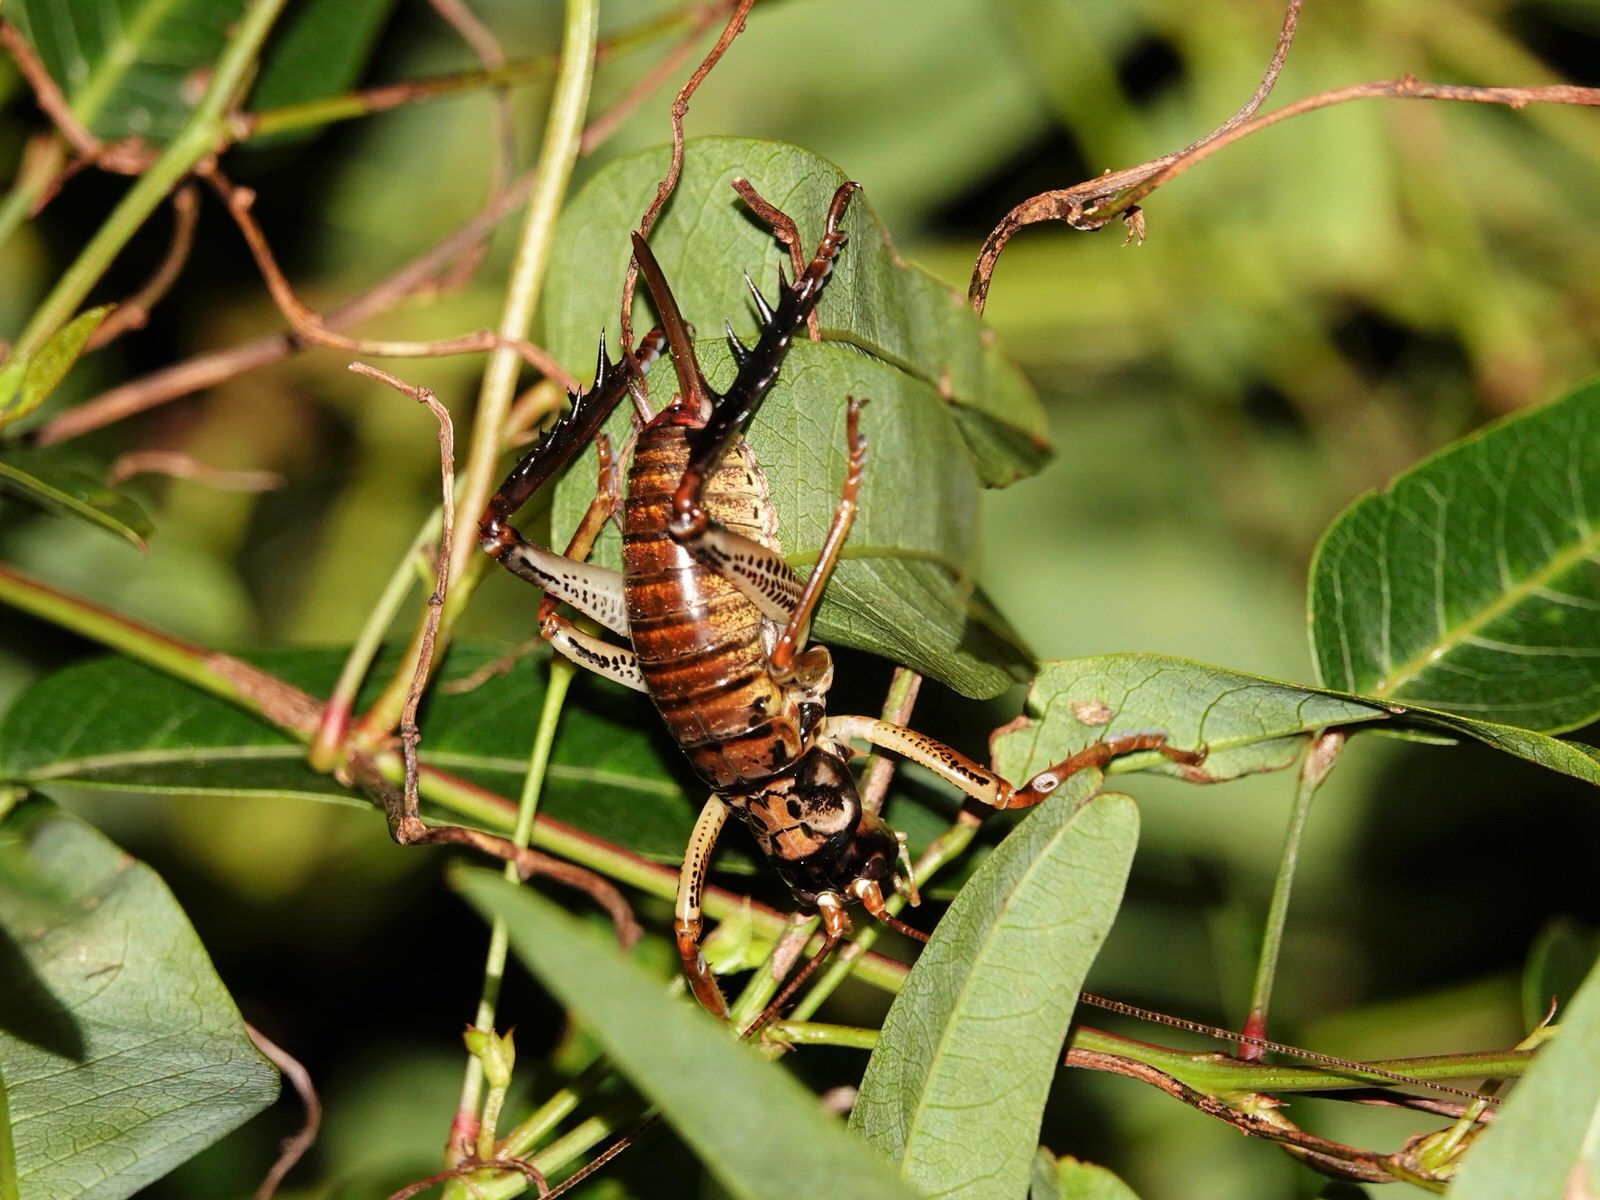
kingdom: Animalia
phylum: Arthropoda
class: Insecta
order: Orthoptera
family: Anostostomatidae
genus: Hemideina
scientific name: Hemideina thoracica
